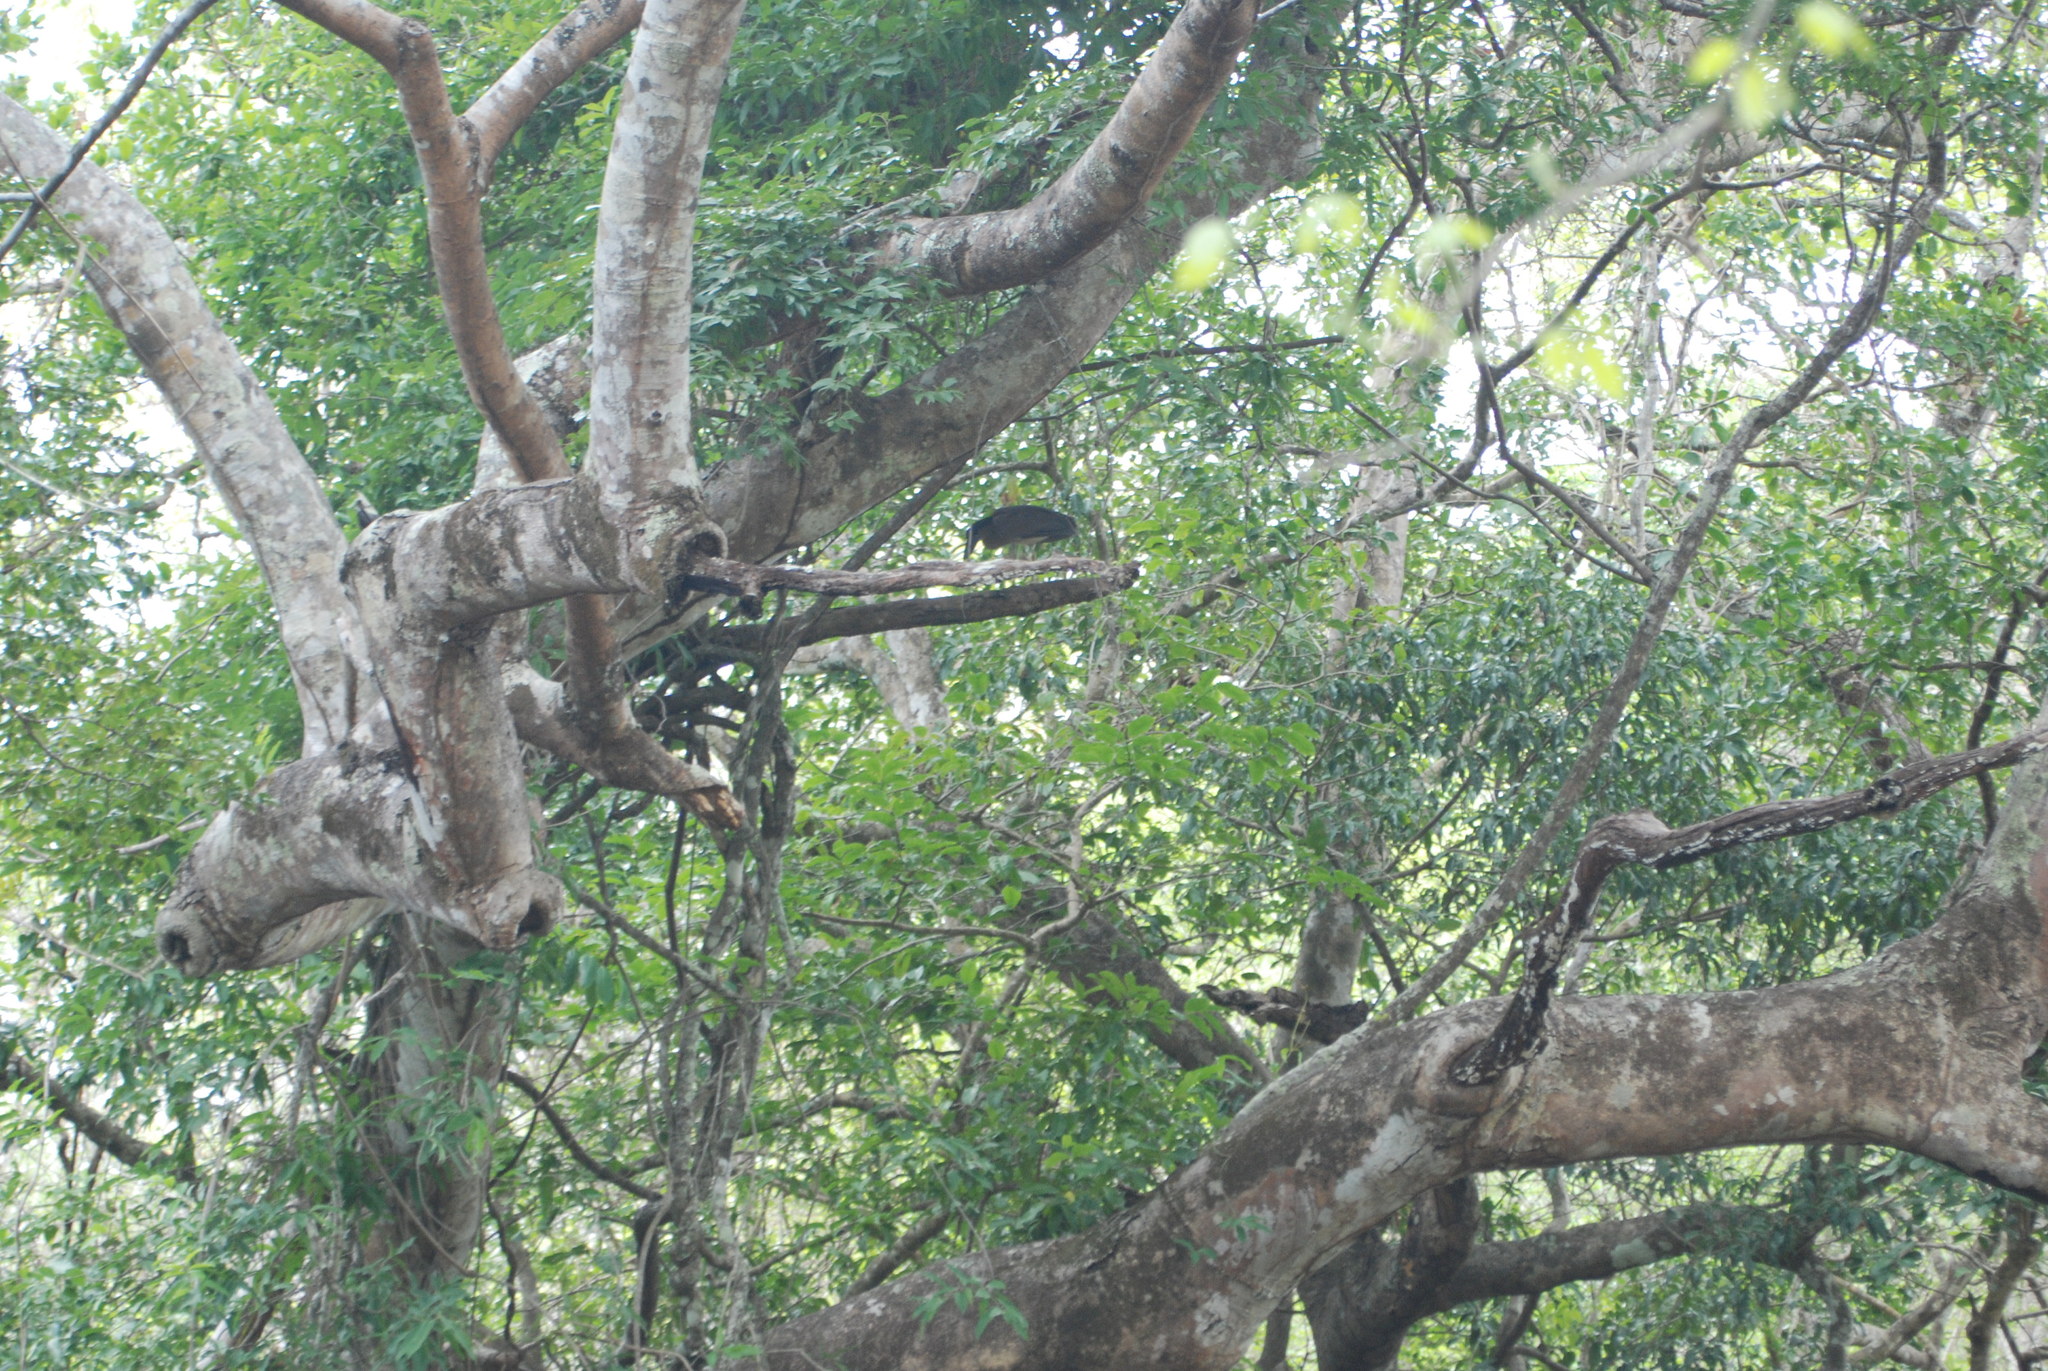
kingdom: Animalia
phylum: Chordata
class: Aves
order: Pelecaniformes
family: Ardeidae
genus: Cochlearius
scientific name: Cochlearius cochlearius
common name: Boat-billed heron
